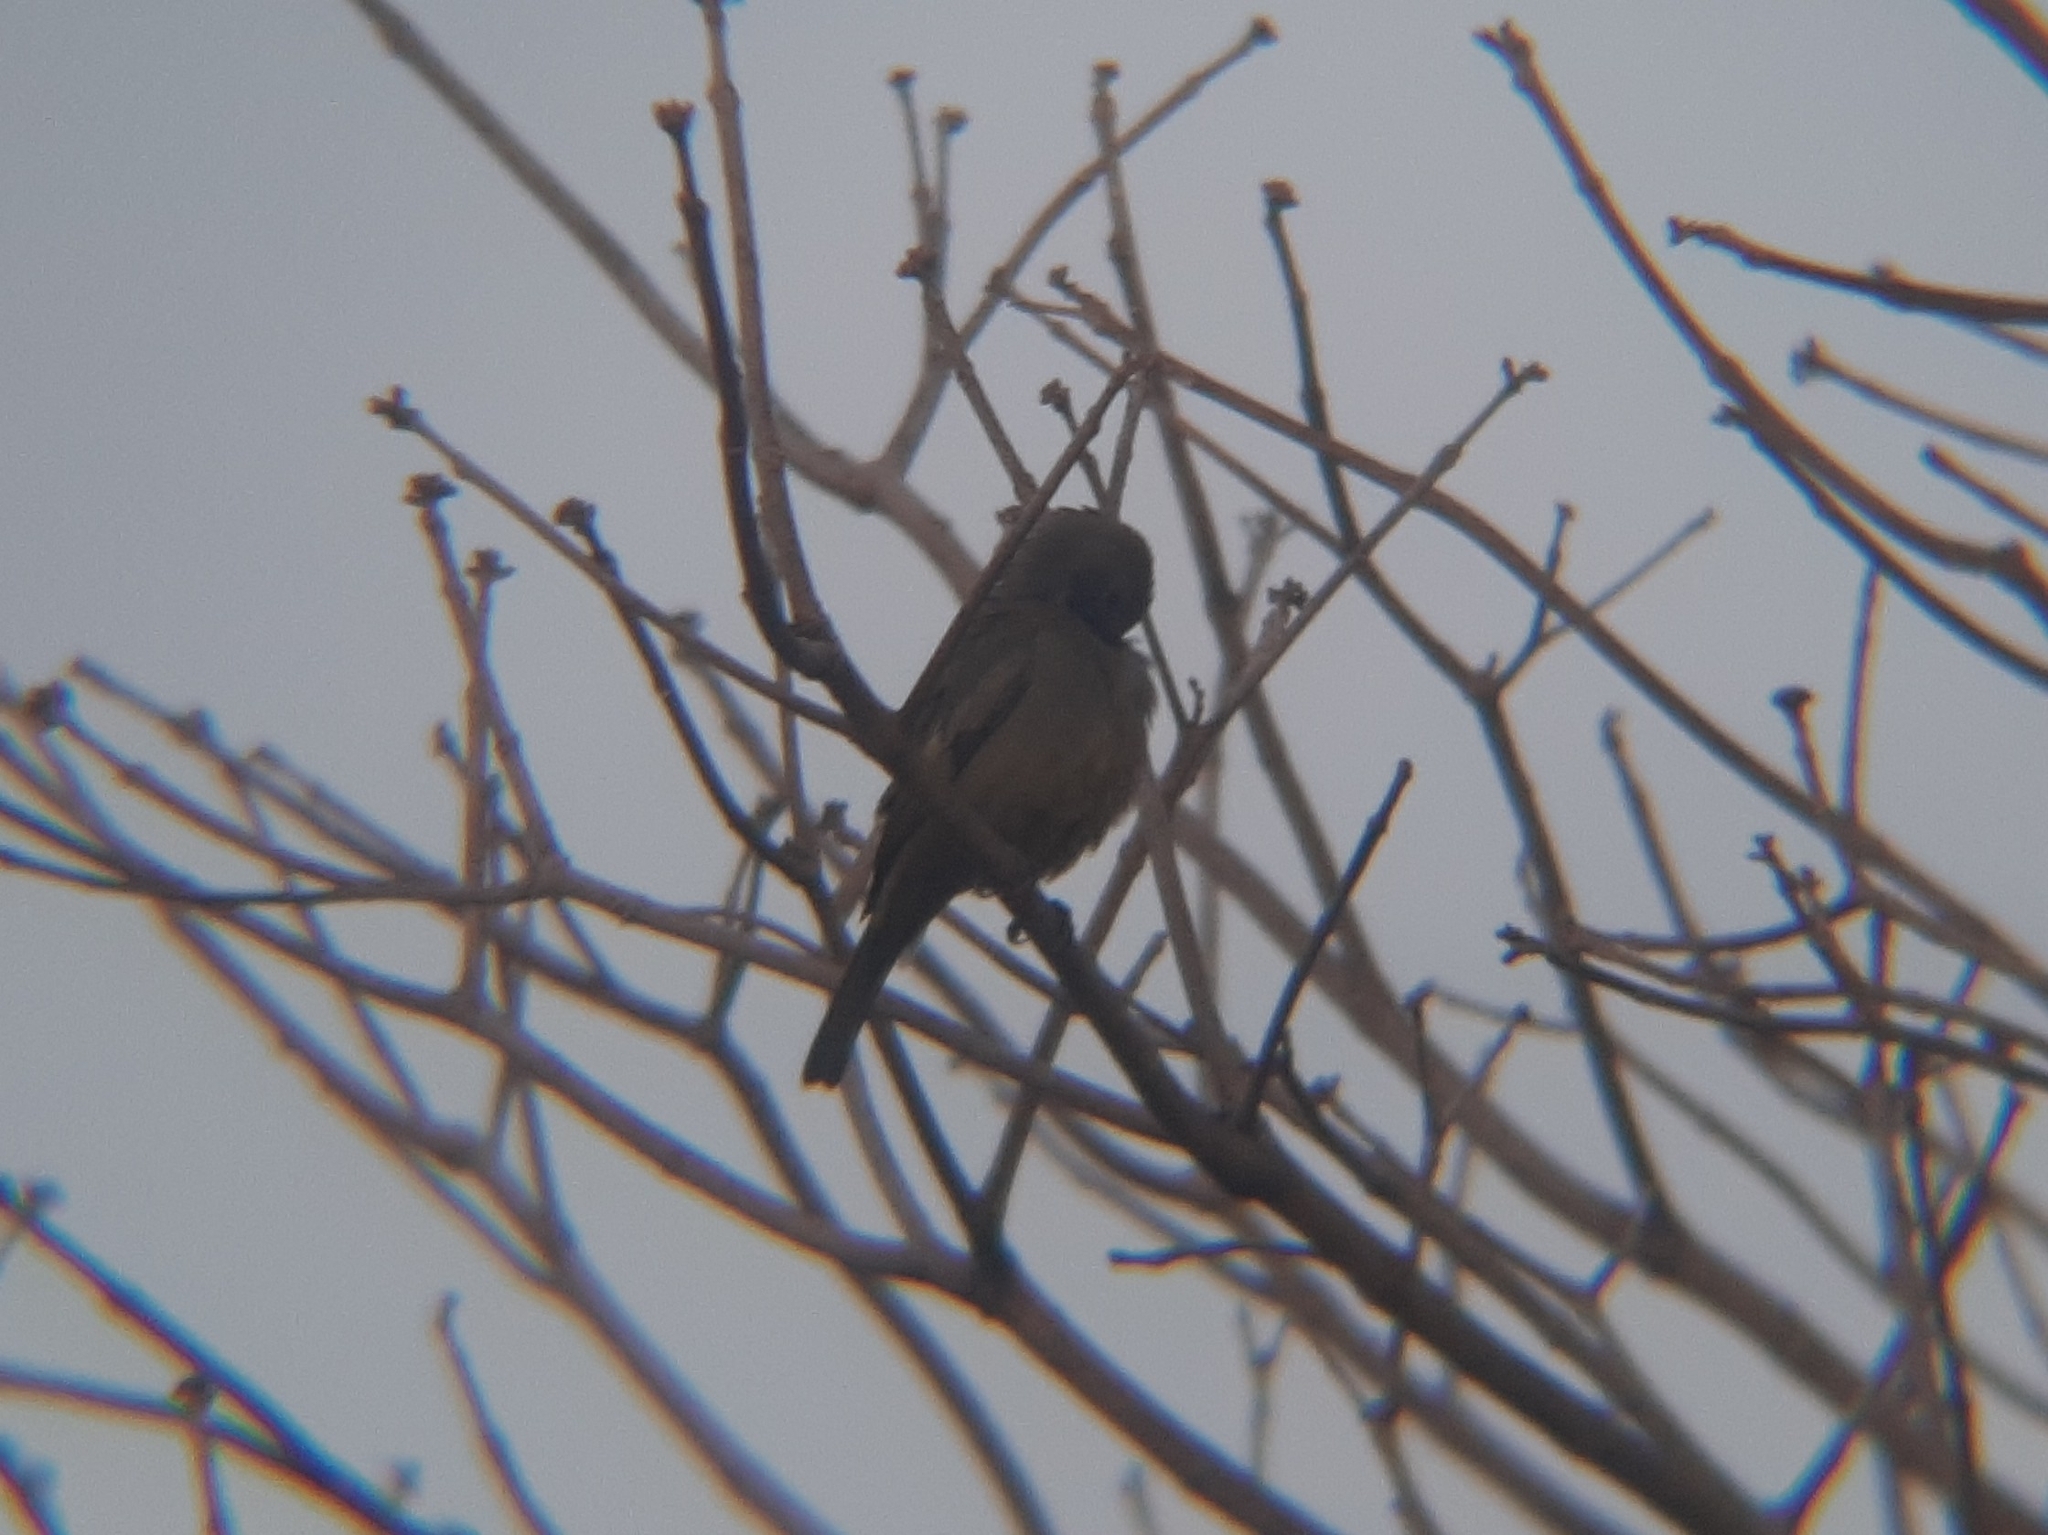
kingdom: Animalia
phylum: Chordata
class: Aves
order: Passeriformes
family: Thraupidae
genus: Thraupis
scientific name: Thraupis palmarum
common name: Palm tanager
